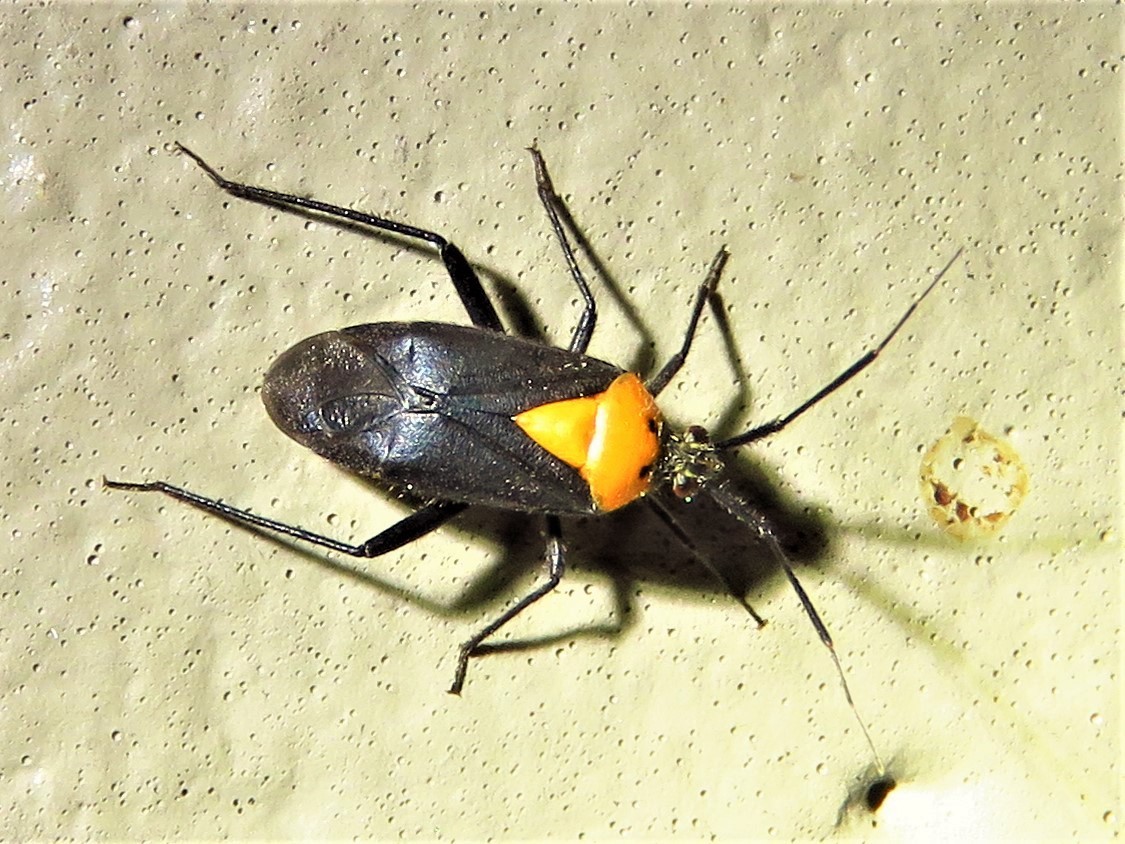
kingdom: Animalia
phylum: Arthropoda
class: Insecta
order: Hemiptera
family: Miridae
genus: Taedia
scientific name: Taedia scrupea
